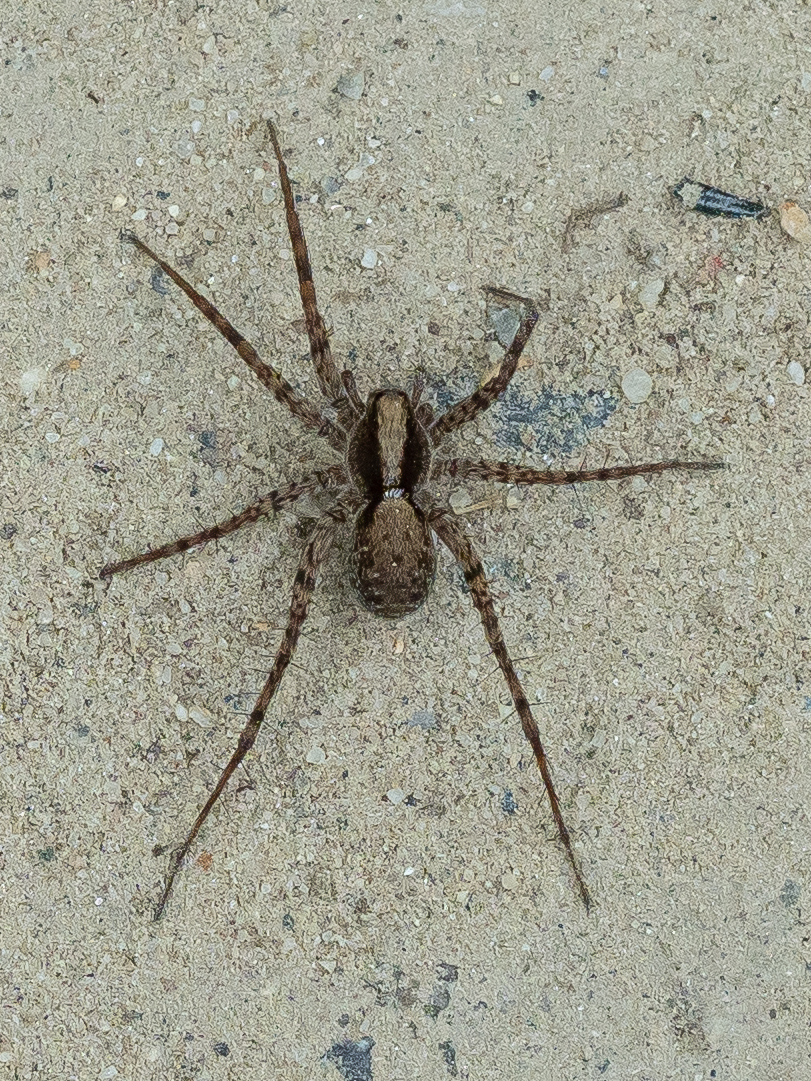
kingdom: Animalia
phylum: Arthropoda
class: Arachnida
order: Araneae
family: Lycosidae
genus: Pardosa
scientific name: Pardosa
